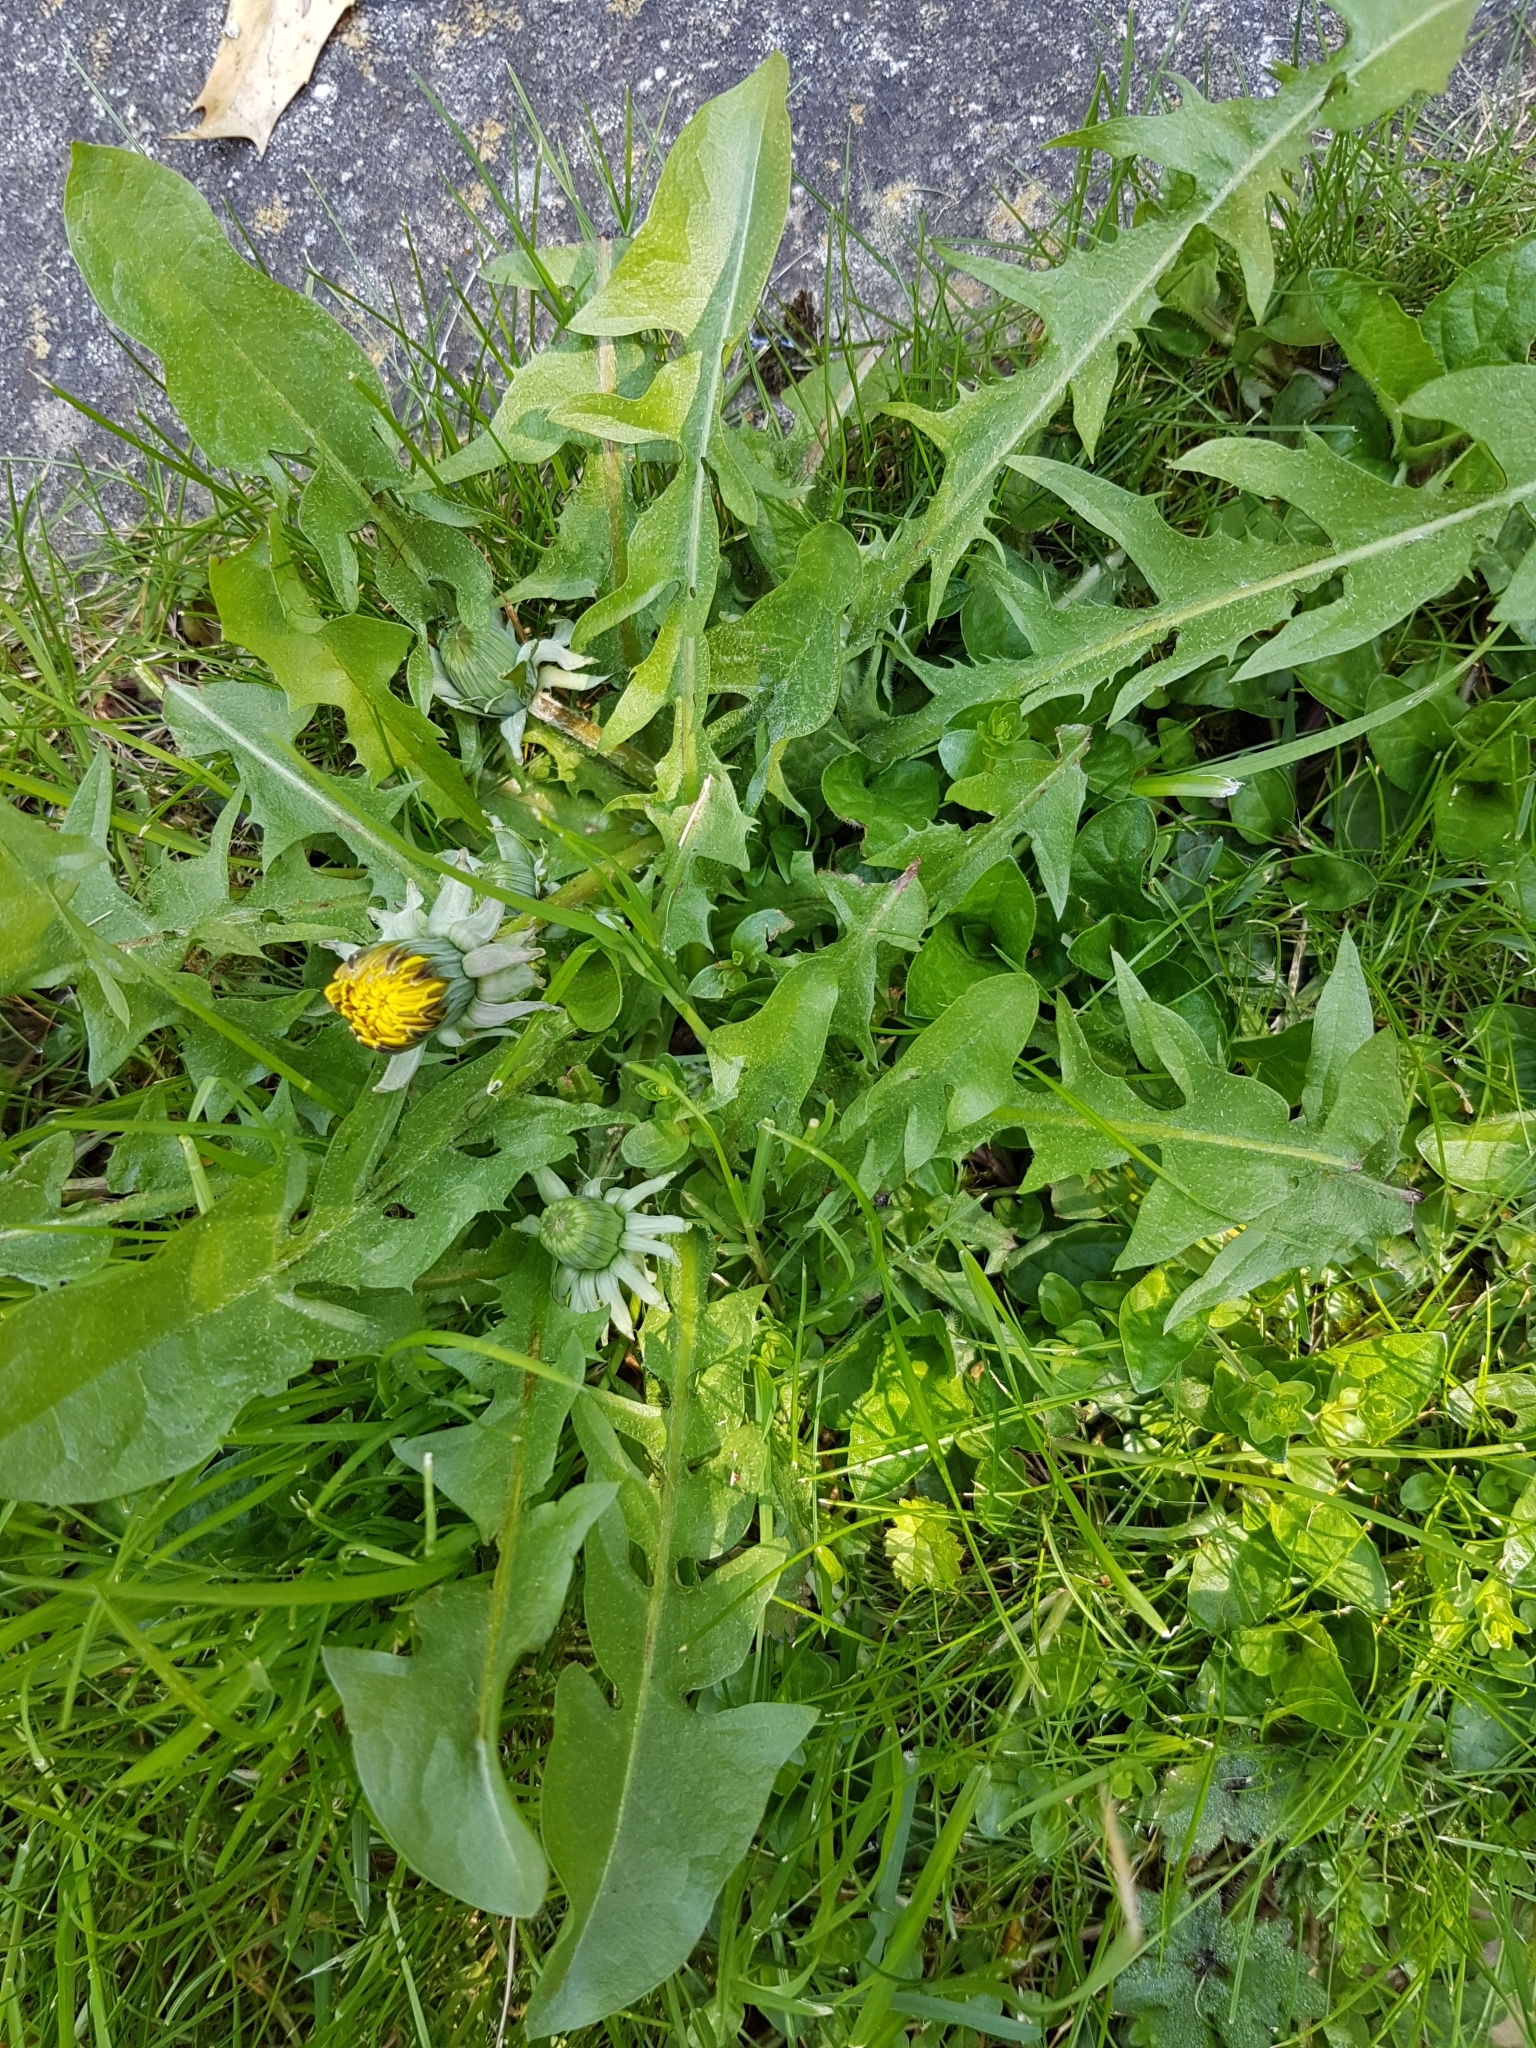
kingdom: Plantae
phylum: Tracheophyta
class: Magnoliopsida
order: Asterales
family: Asteraceae
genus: Taraxacum
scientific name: Taraxacum officinale
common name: Common dandelion
